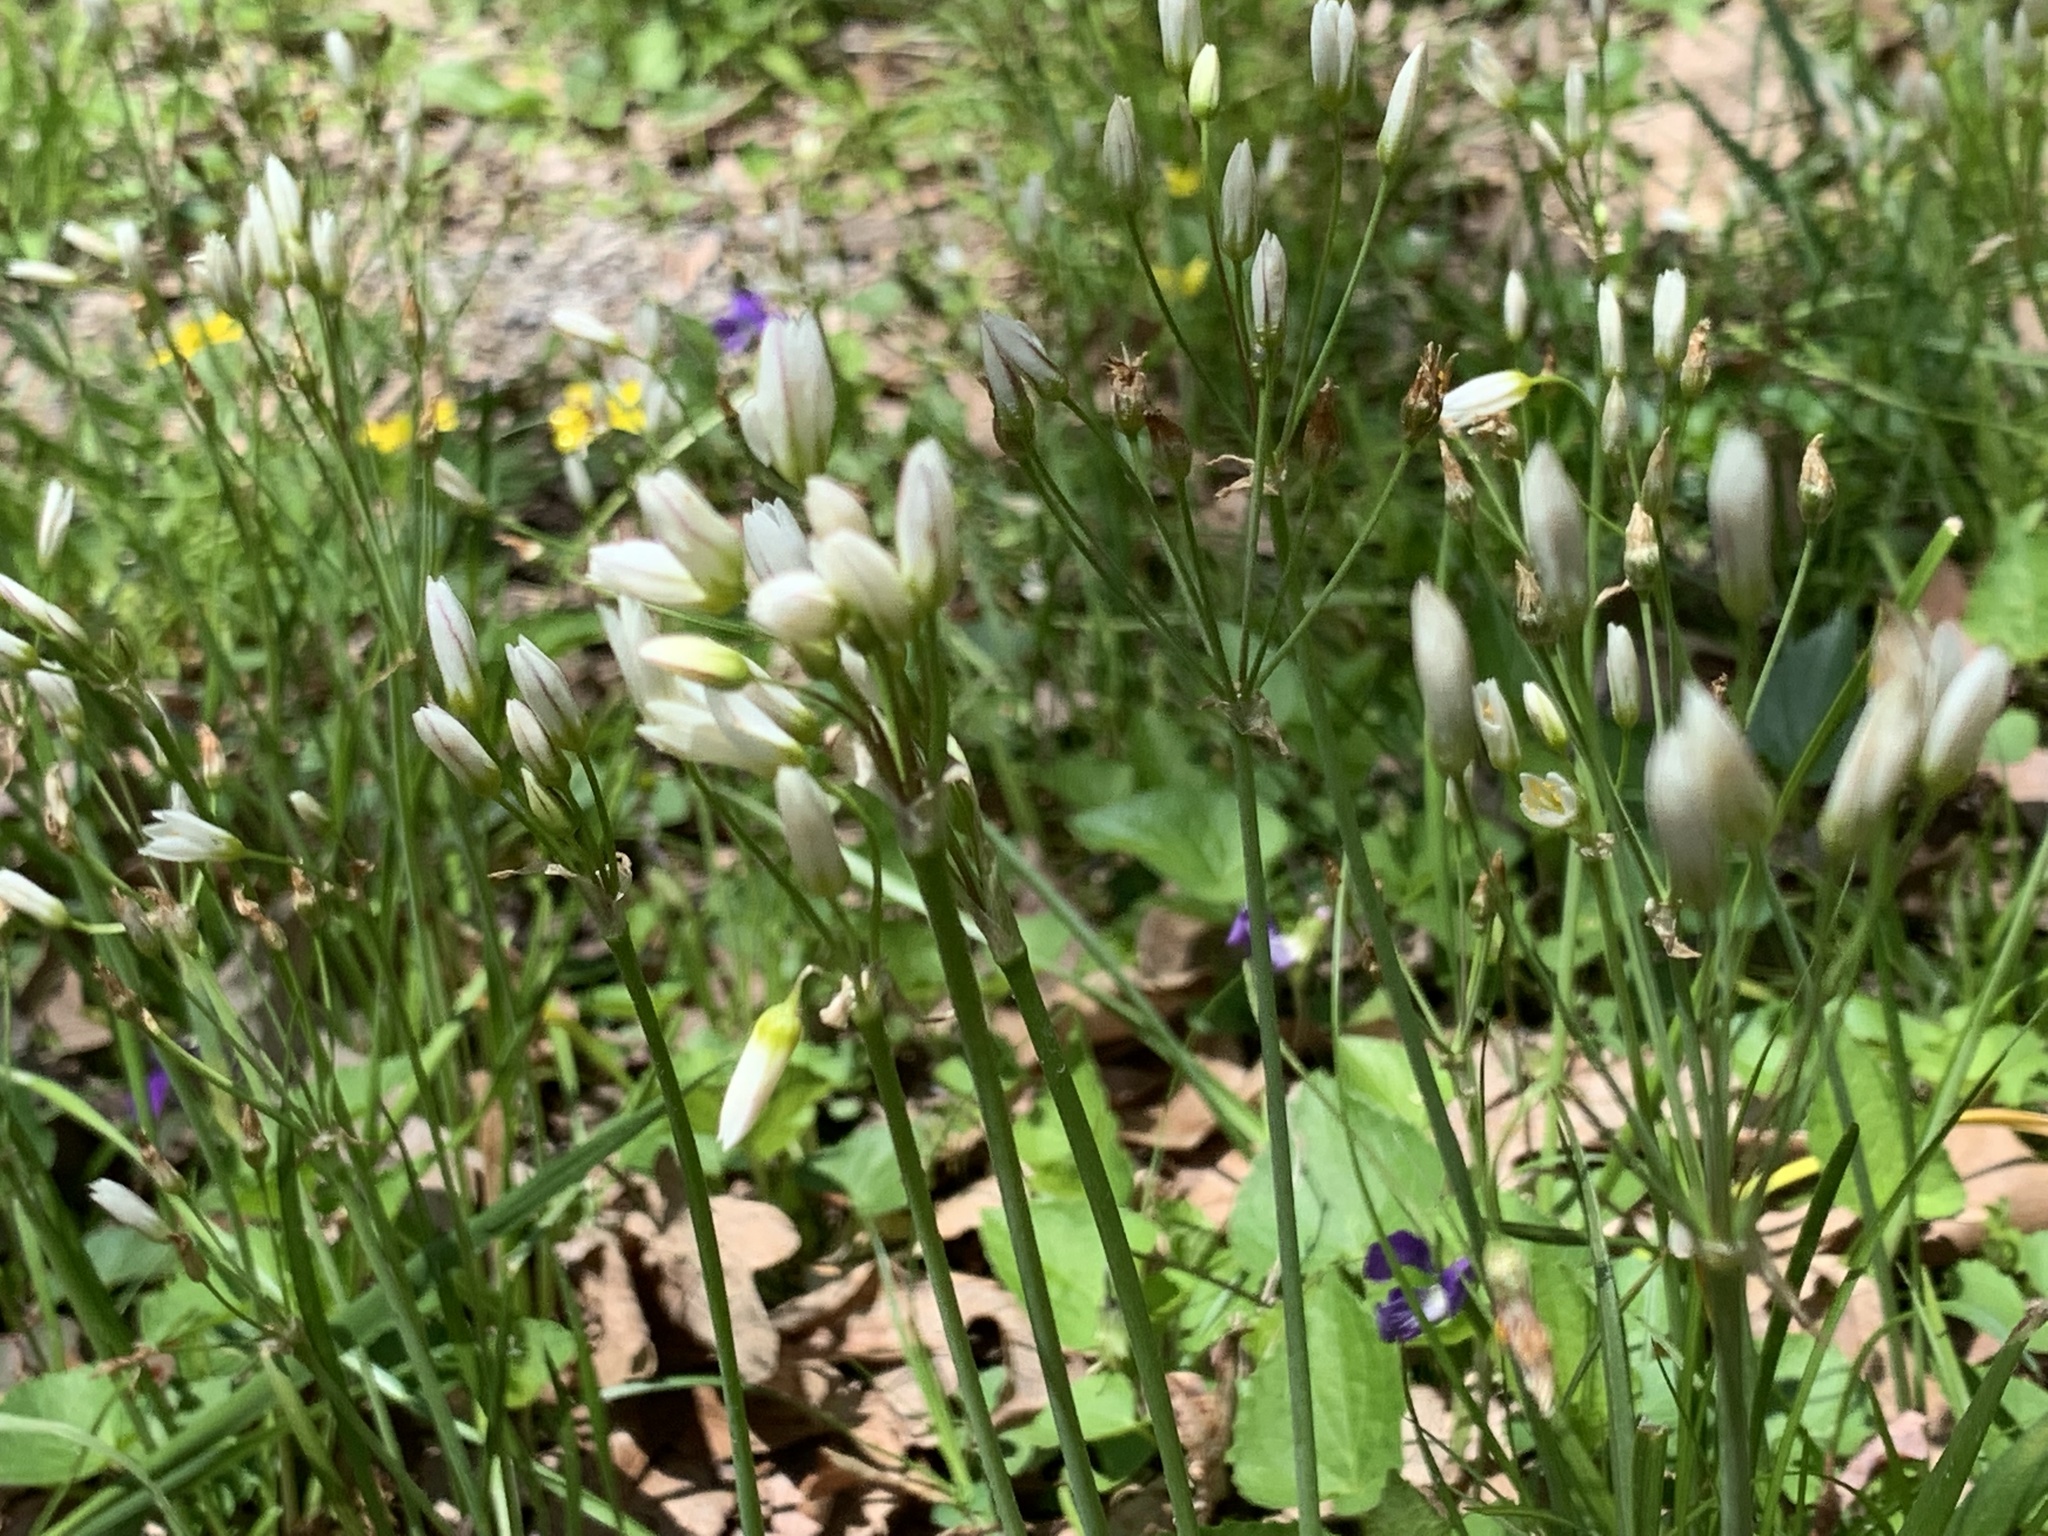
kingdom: Plantae
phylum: Tracheophyta
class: Liliopsida
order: Asparagales
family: Amaryllidaceae
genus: Nothoscordum
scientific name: Nothoscordum bivalve
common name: Crow-poison
